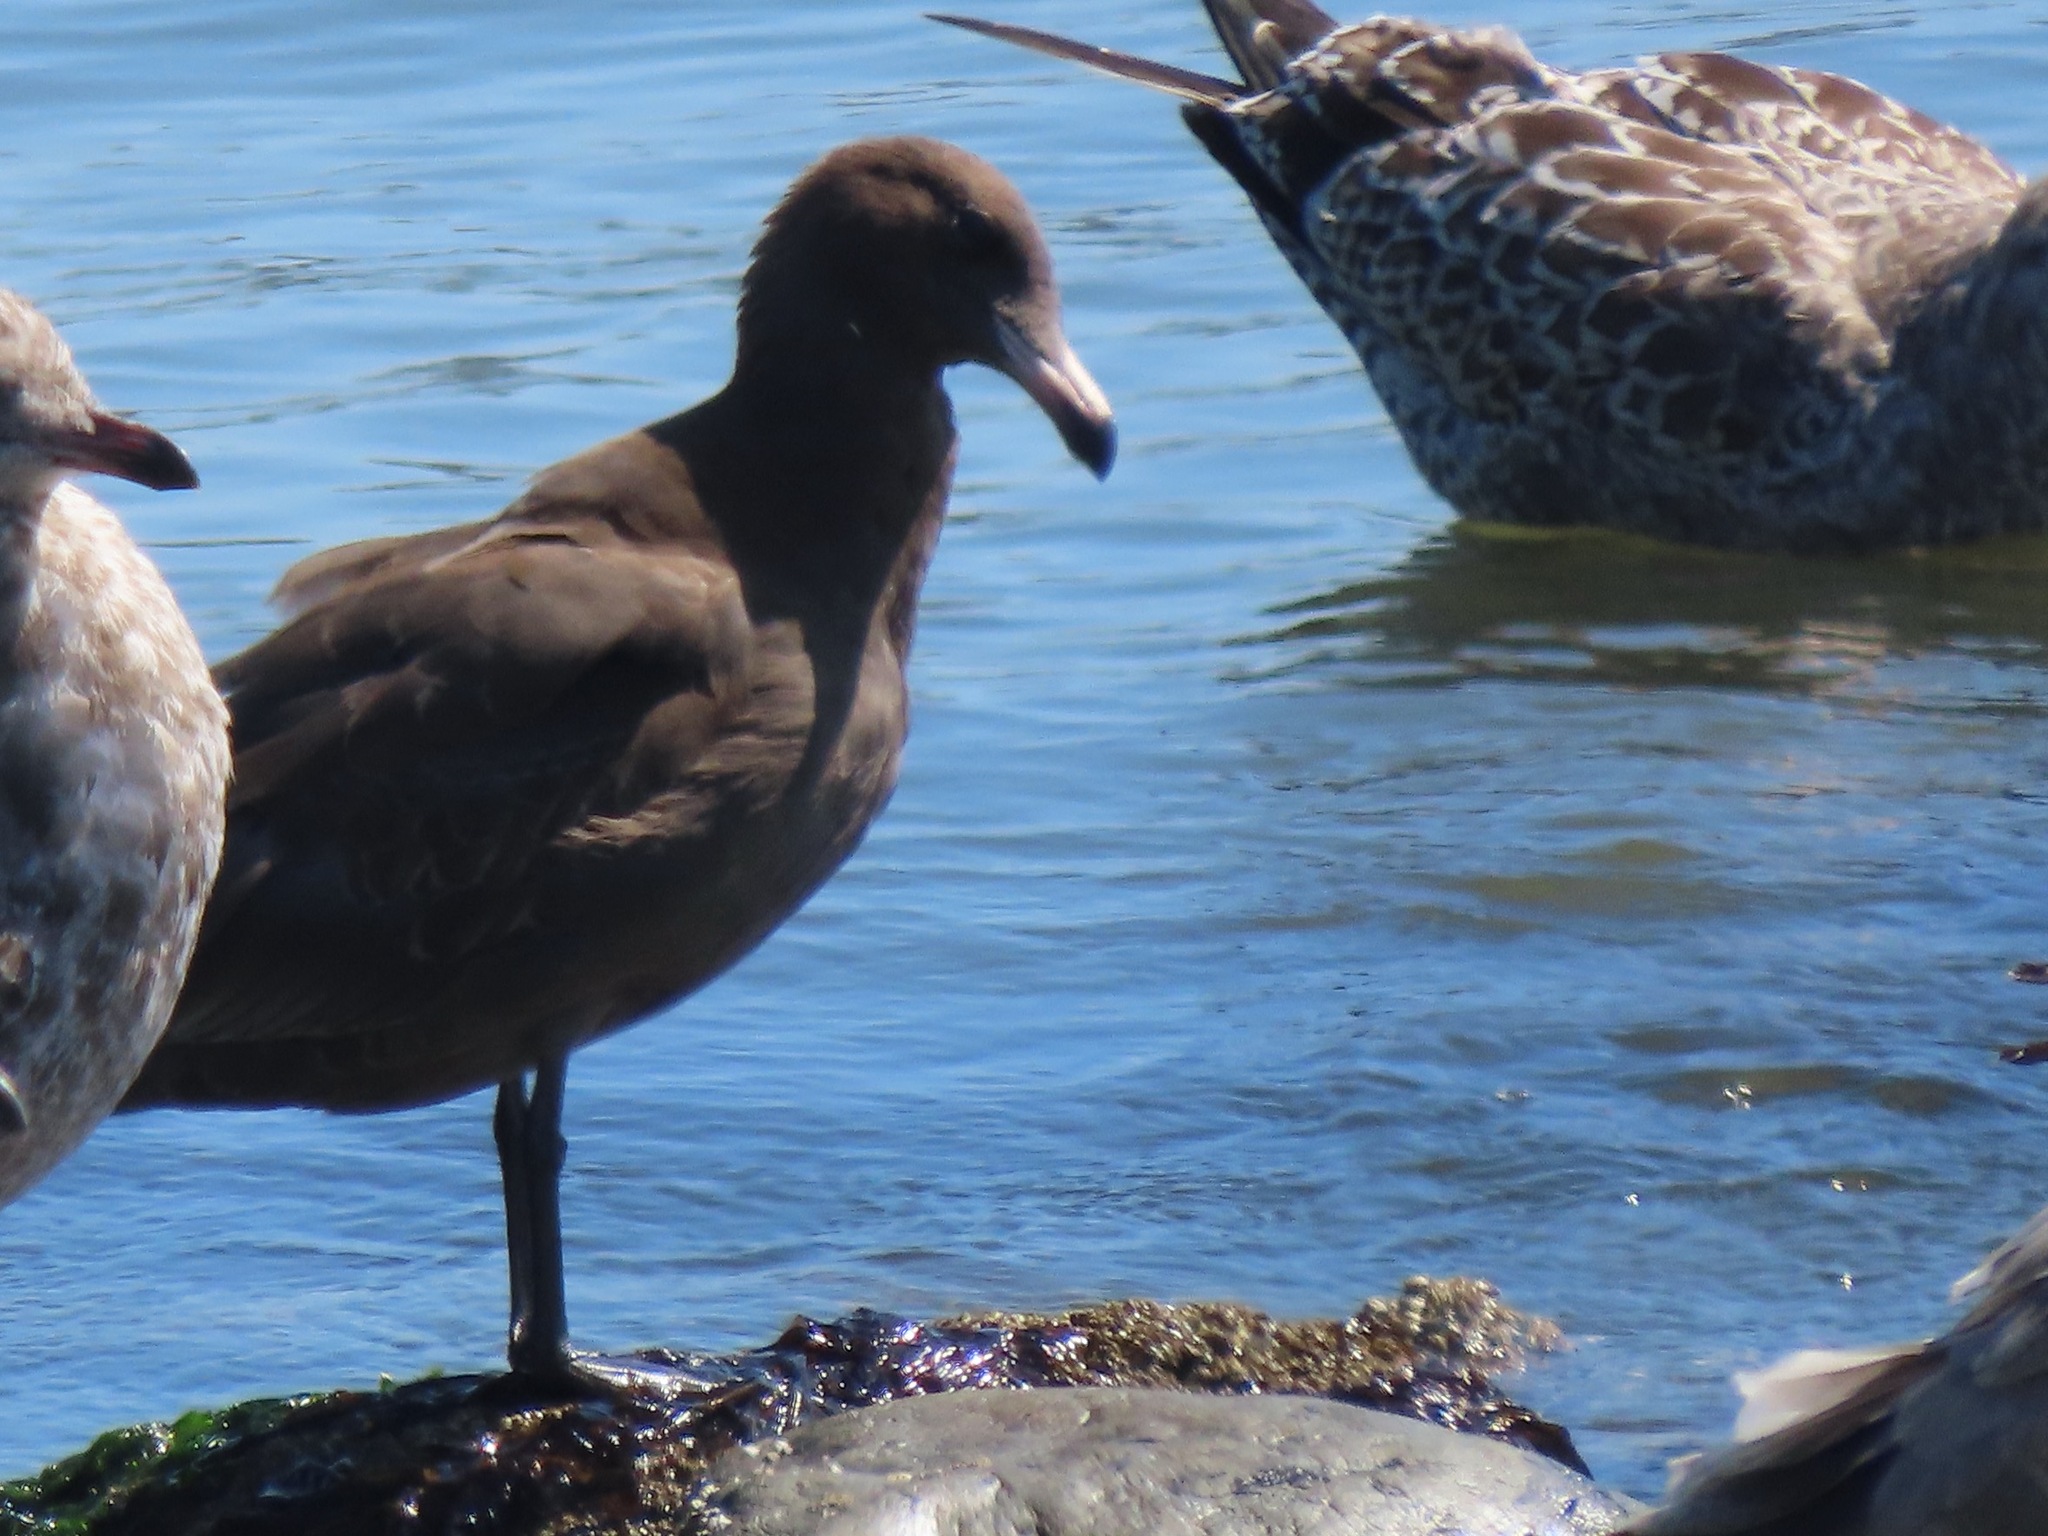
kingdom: Animalia
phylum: Chordata
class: Aves
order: Charadriiformes
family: Laridae
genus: Larus
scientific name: Larus heermanni
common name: Heermann's gull
